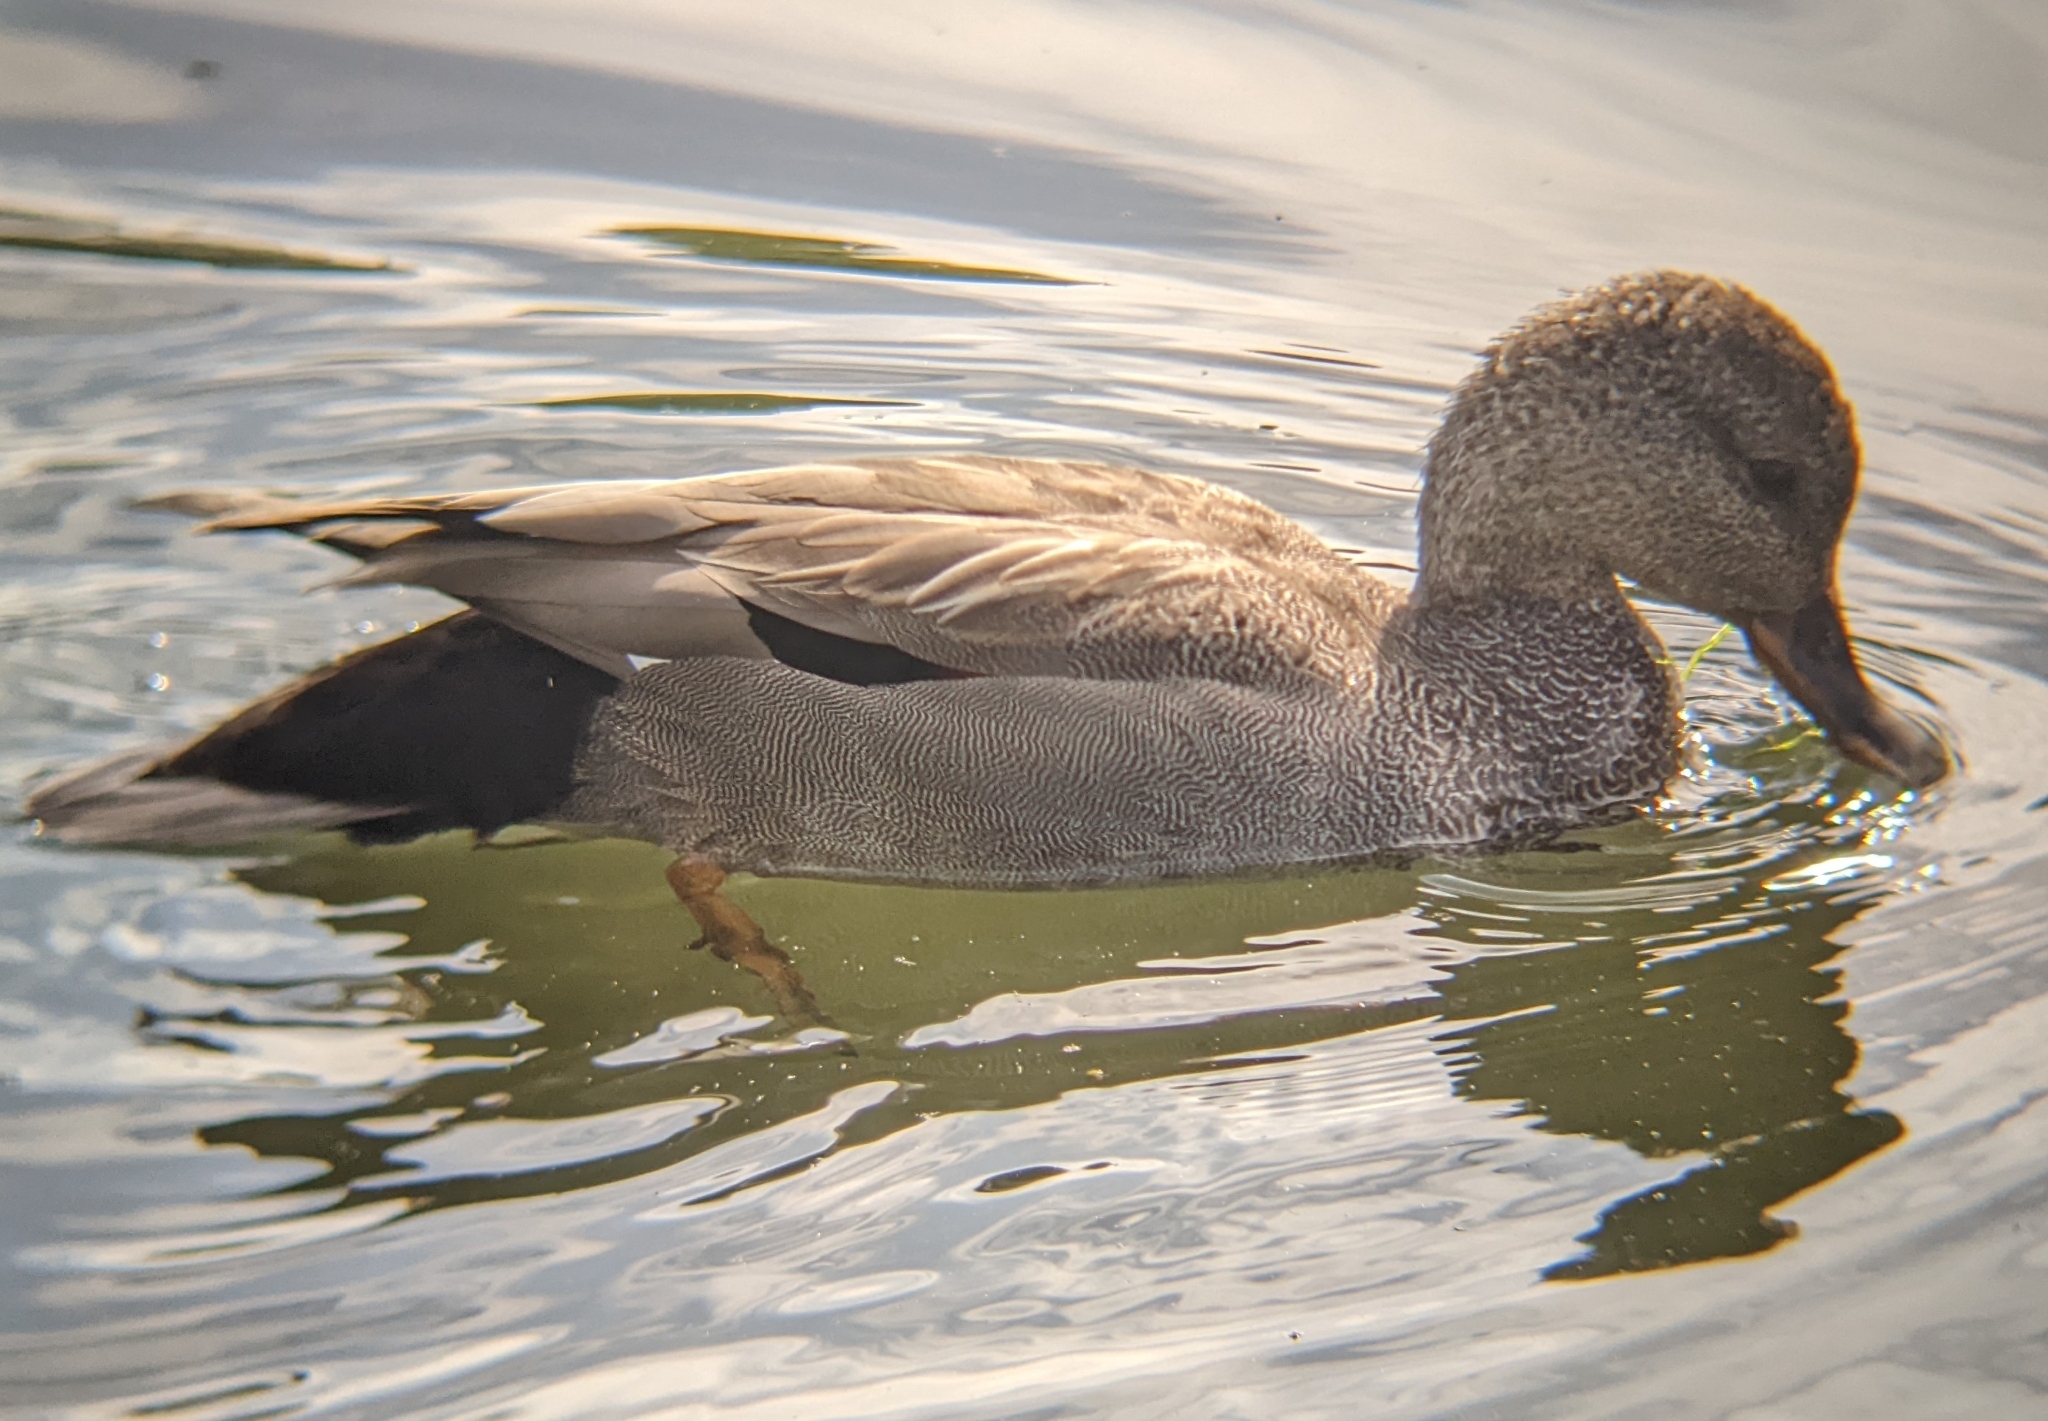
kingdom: Animalia
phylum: Chordata
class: Aves
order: Anseriformes
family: Anatidae
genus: Mareca
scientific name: Mareca strepera
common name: Gadwall
